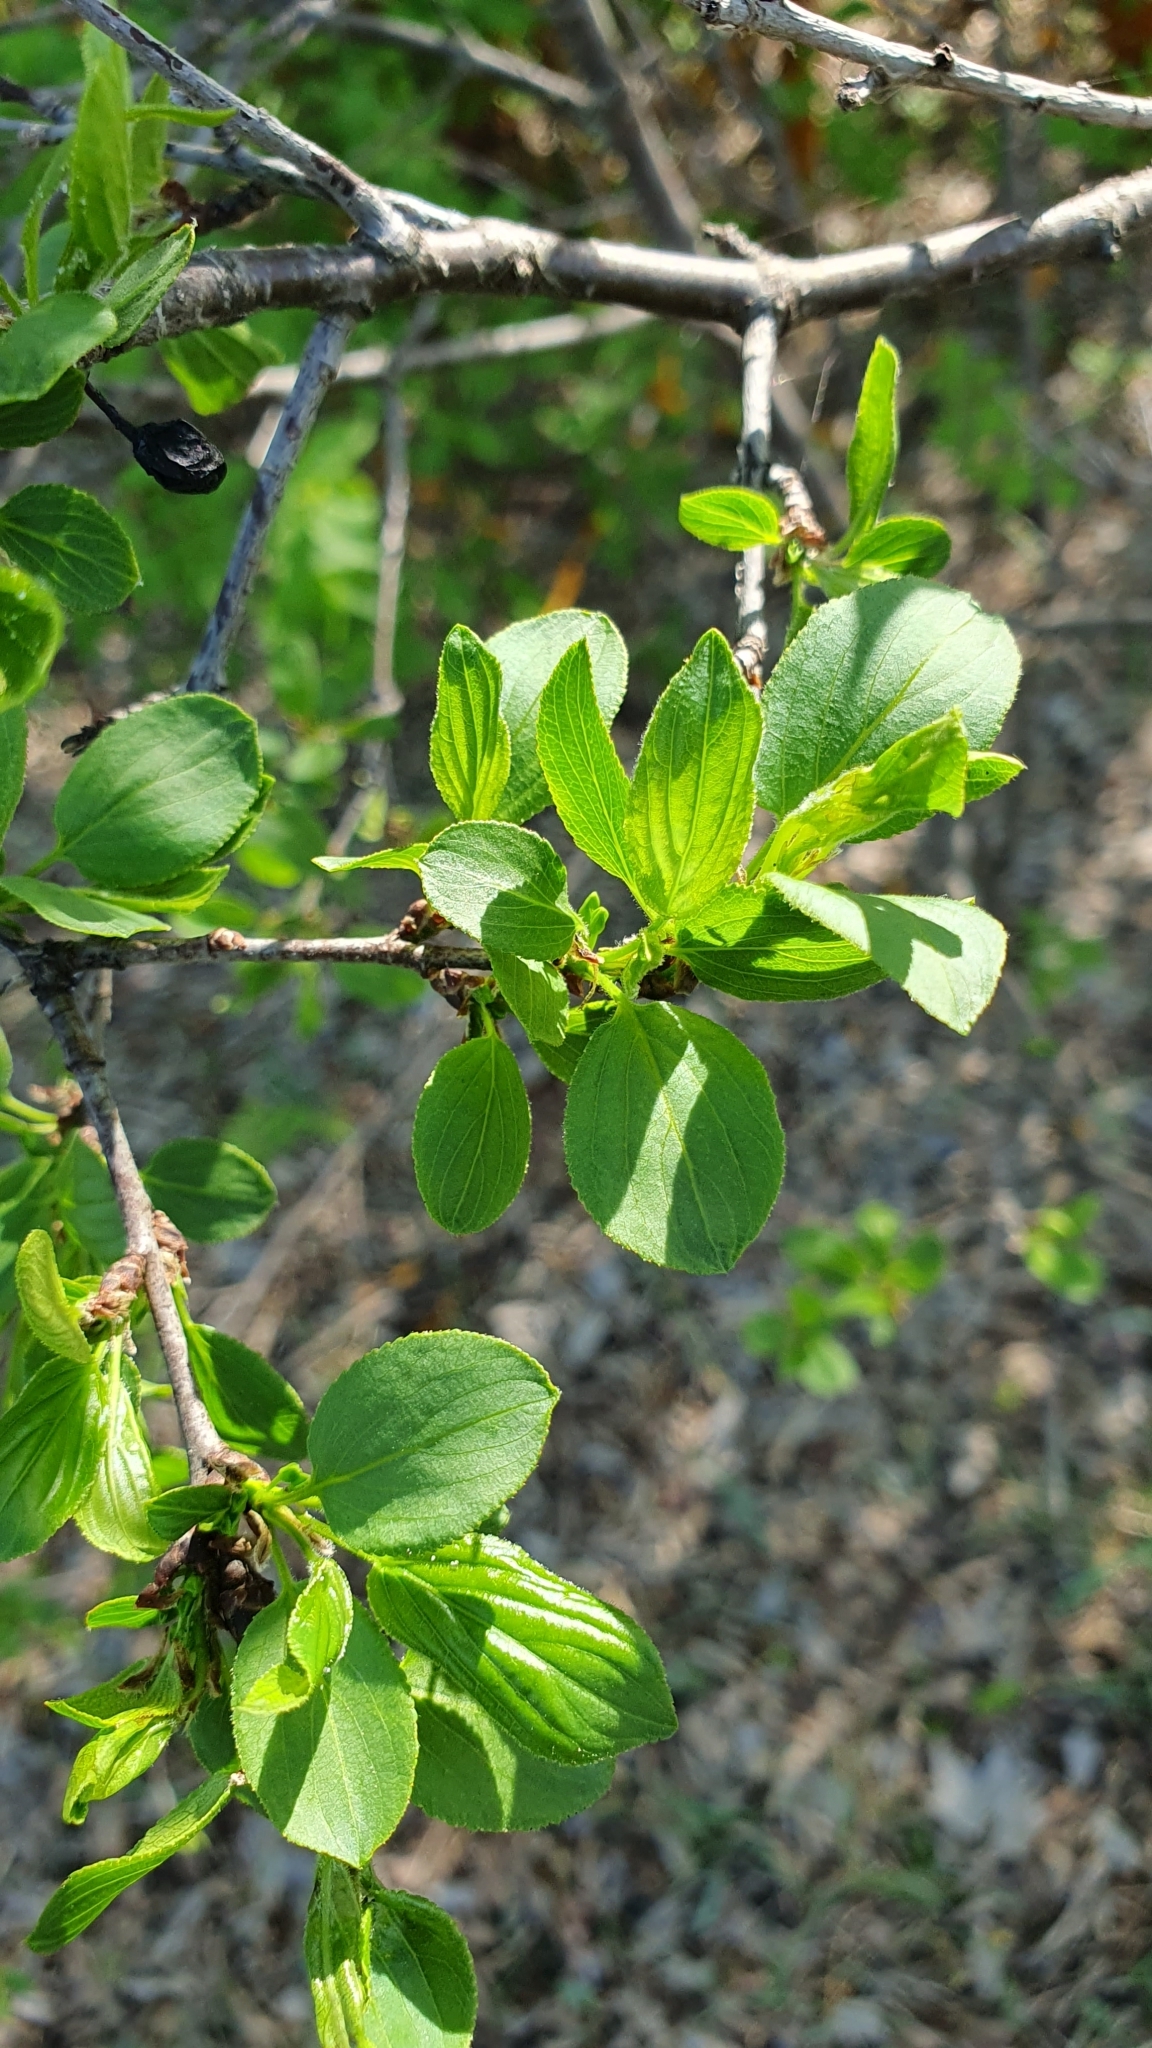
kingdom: Plantae
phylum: Tracheophyta
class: Magnoliopsida
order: Rosales
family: Rhamnaceae
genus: Rhamnus
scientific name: Rhamnus cathartica
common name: Common buckthorn
